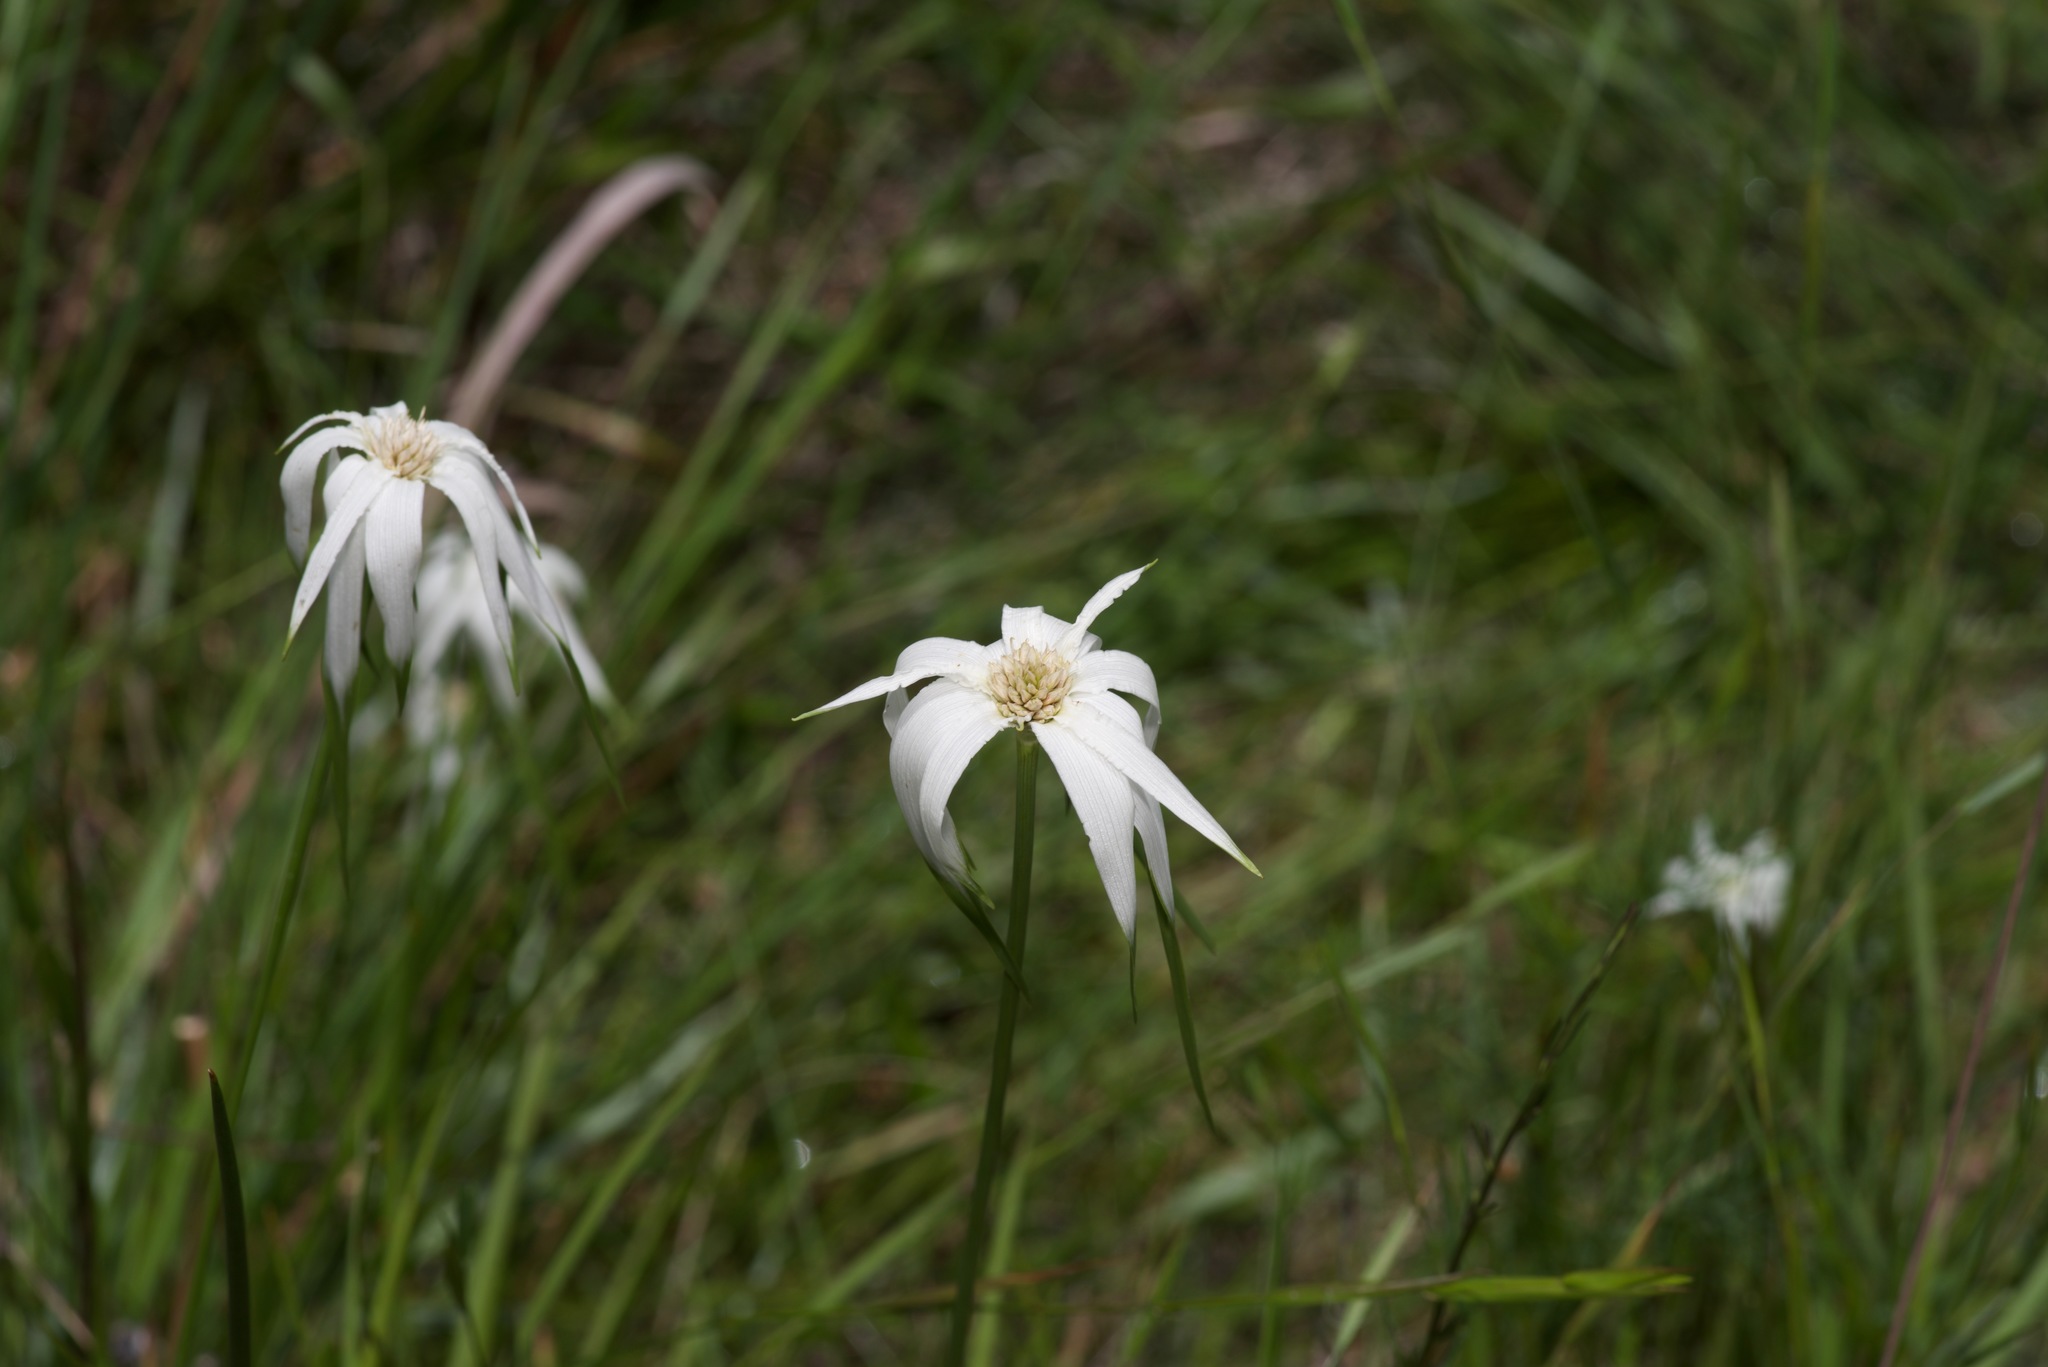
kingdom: Plantae
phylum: Tracheophyta
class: Liliopsida
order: Poales
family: Cyperaceae
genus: Rhynchospora
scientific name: Rhynchospora colorata
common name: Star sedge
